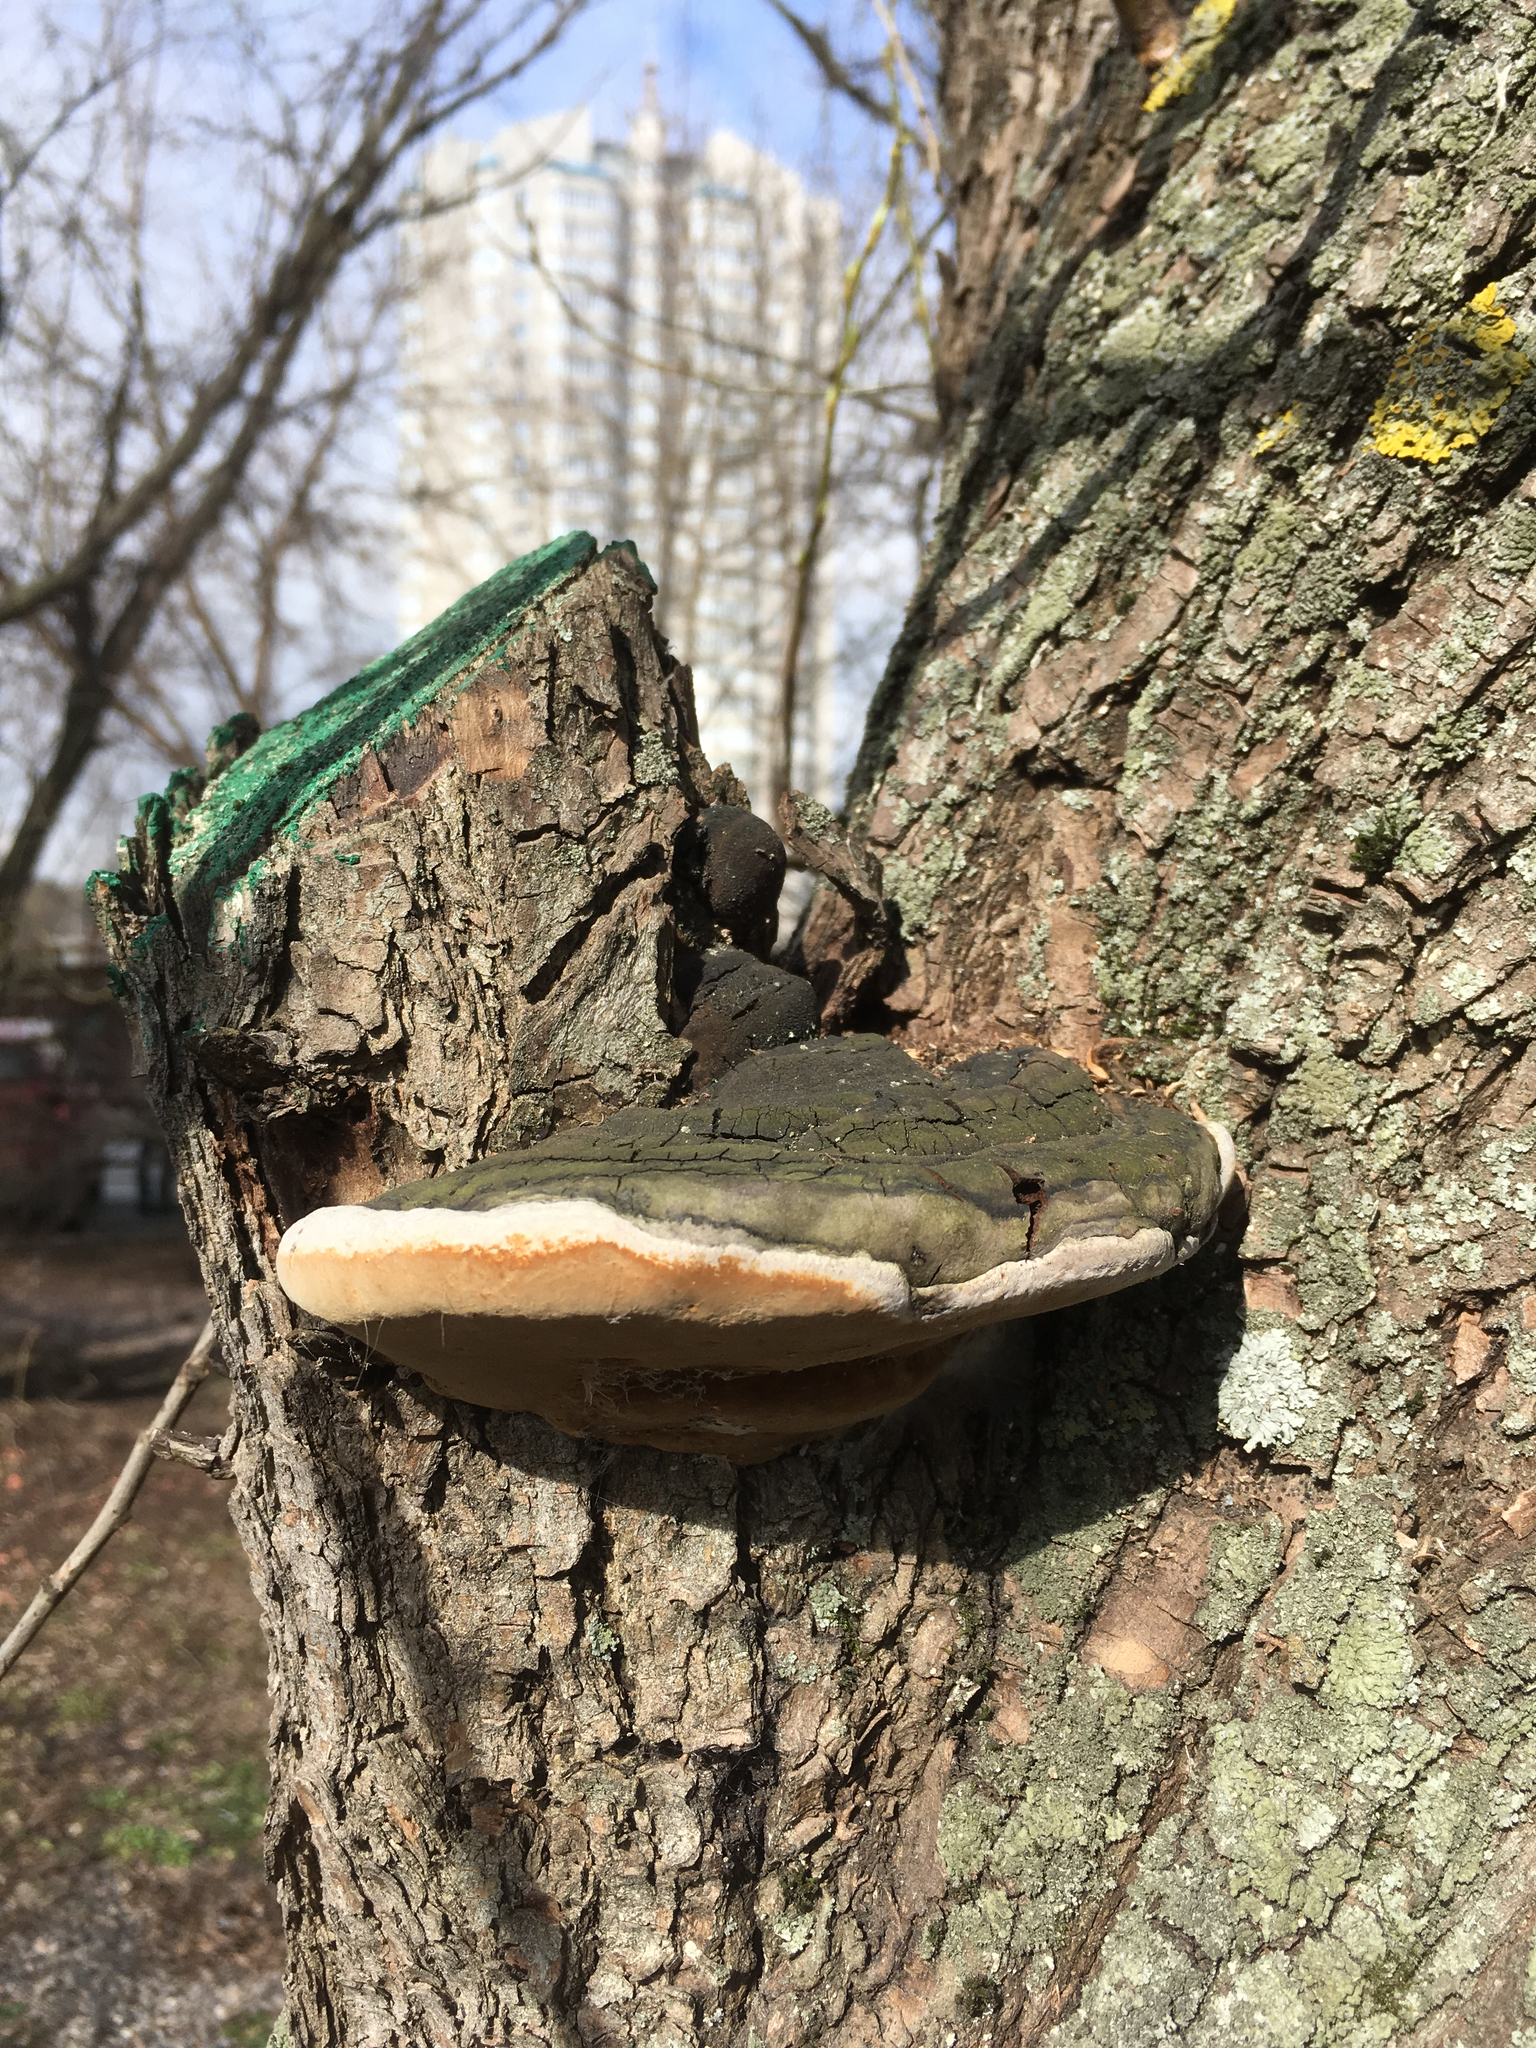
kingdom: Fungi
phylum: Basidiomycota
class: Agaricomycetes
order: Hymenochaetales
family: Hymenochaetaceae
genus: Phellinus
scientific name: Phellinus igniarius
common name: Willow bracket
